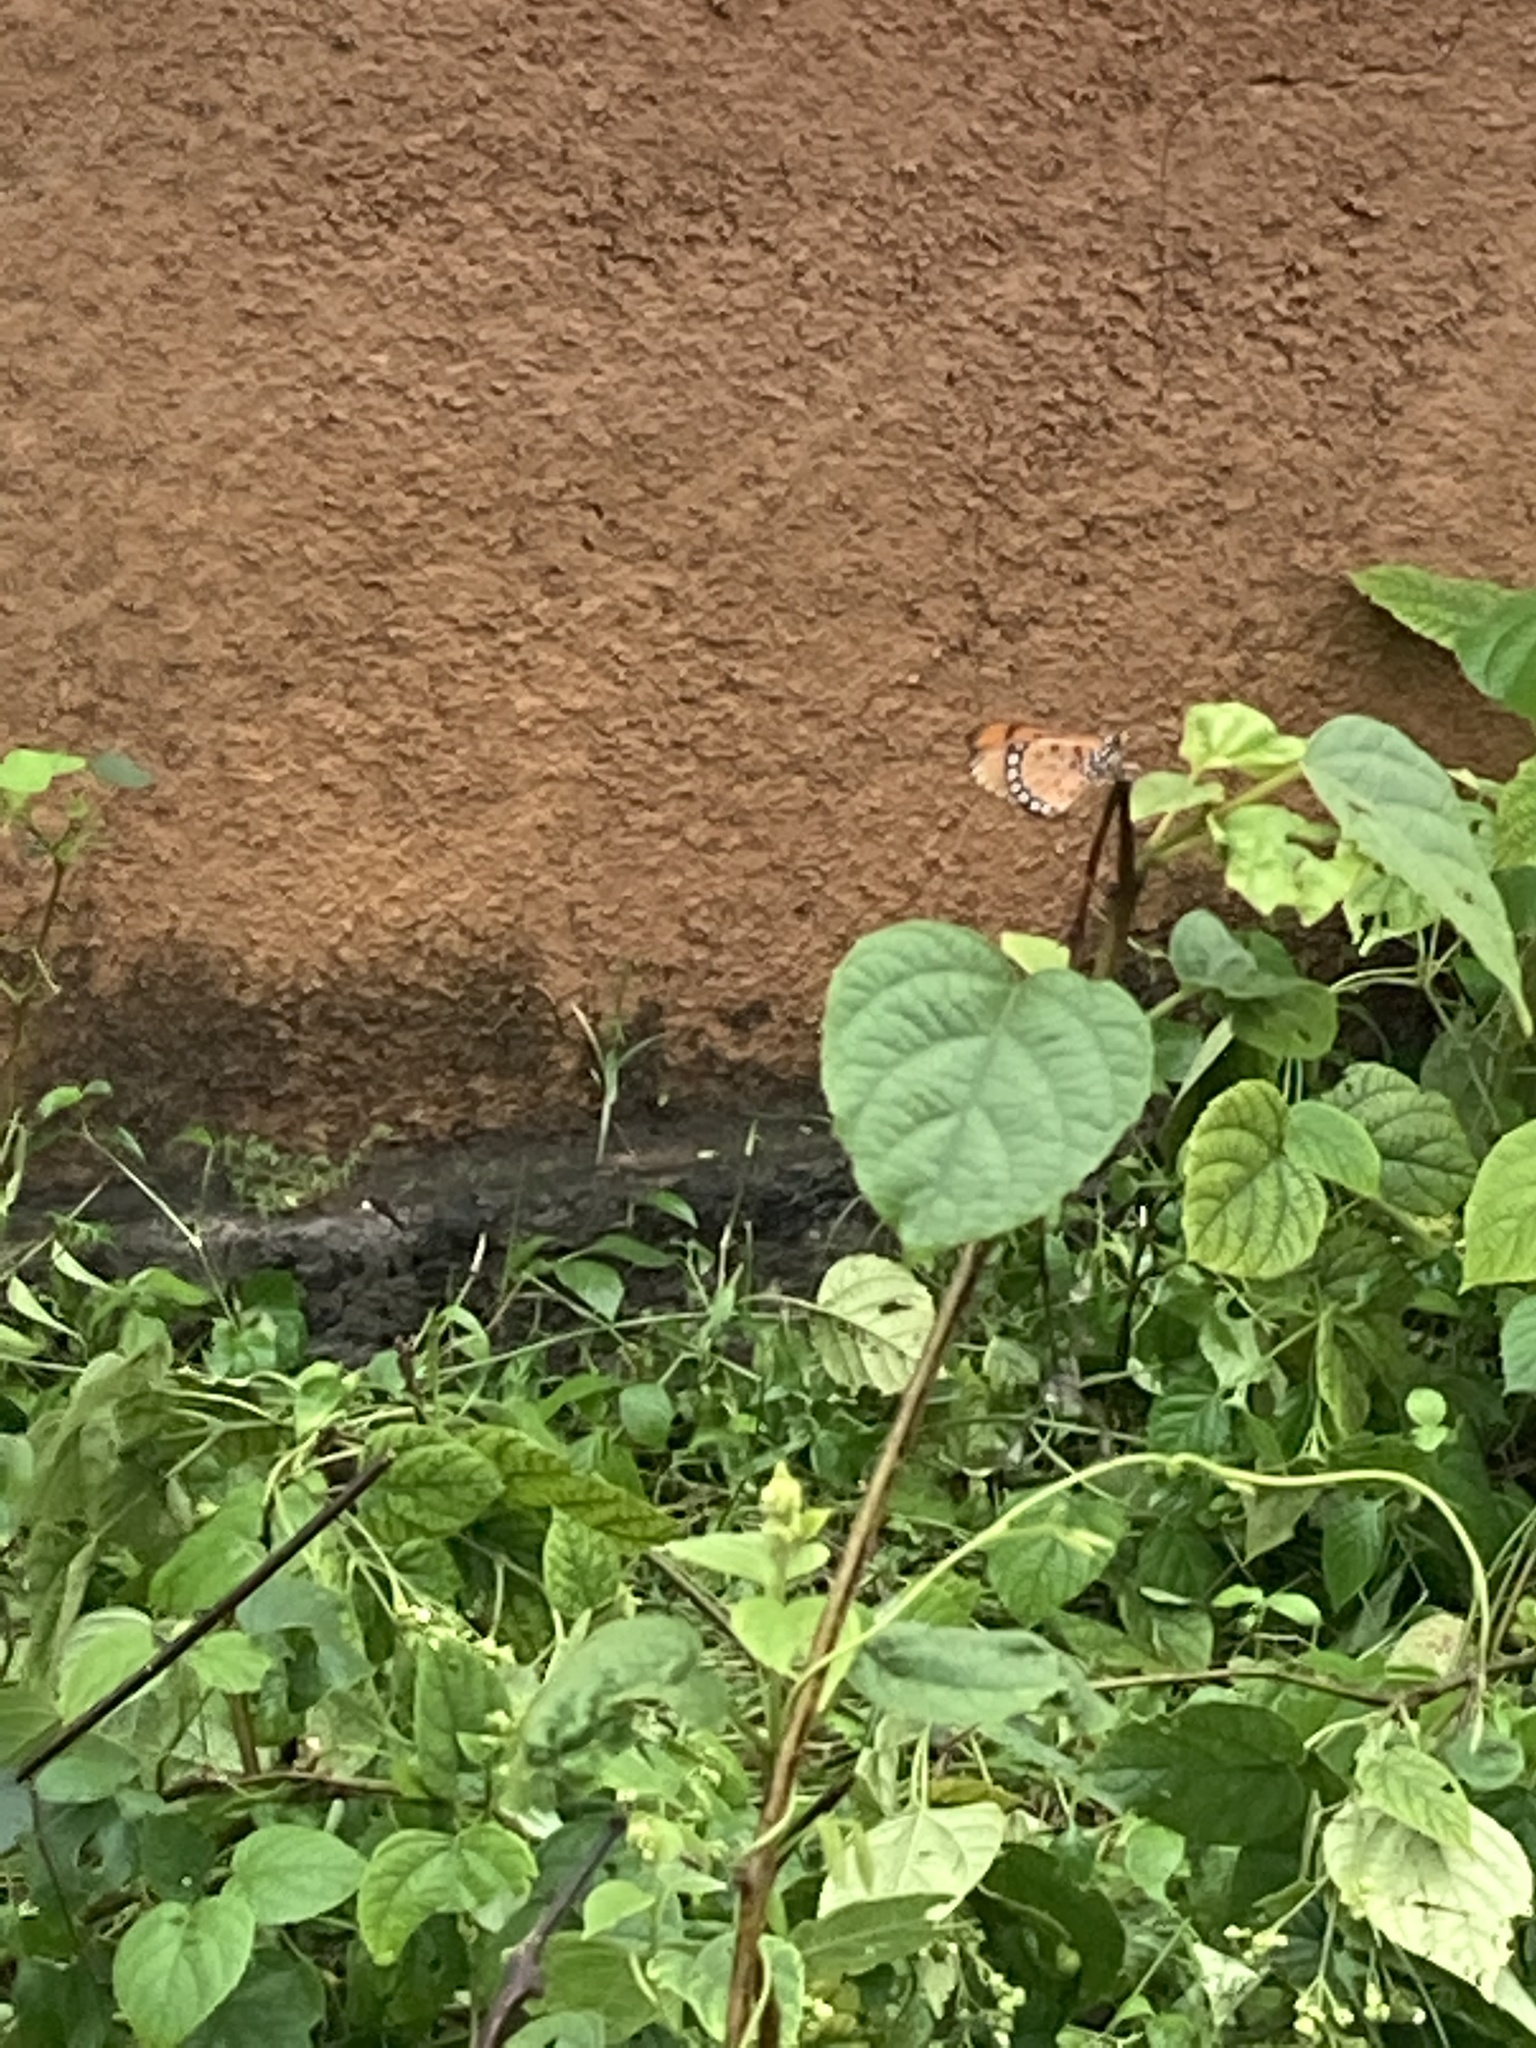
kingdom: Animalia
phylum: Arthropoda
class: Insecta
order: Lepidoptera
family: Nymphalidae
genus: Acraea
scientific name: Acraea terpsicore
